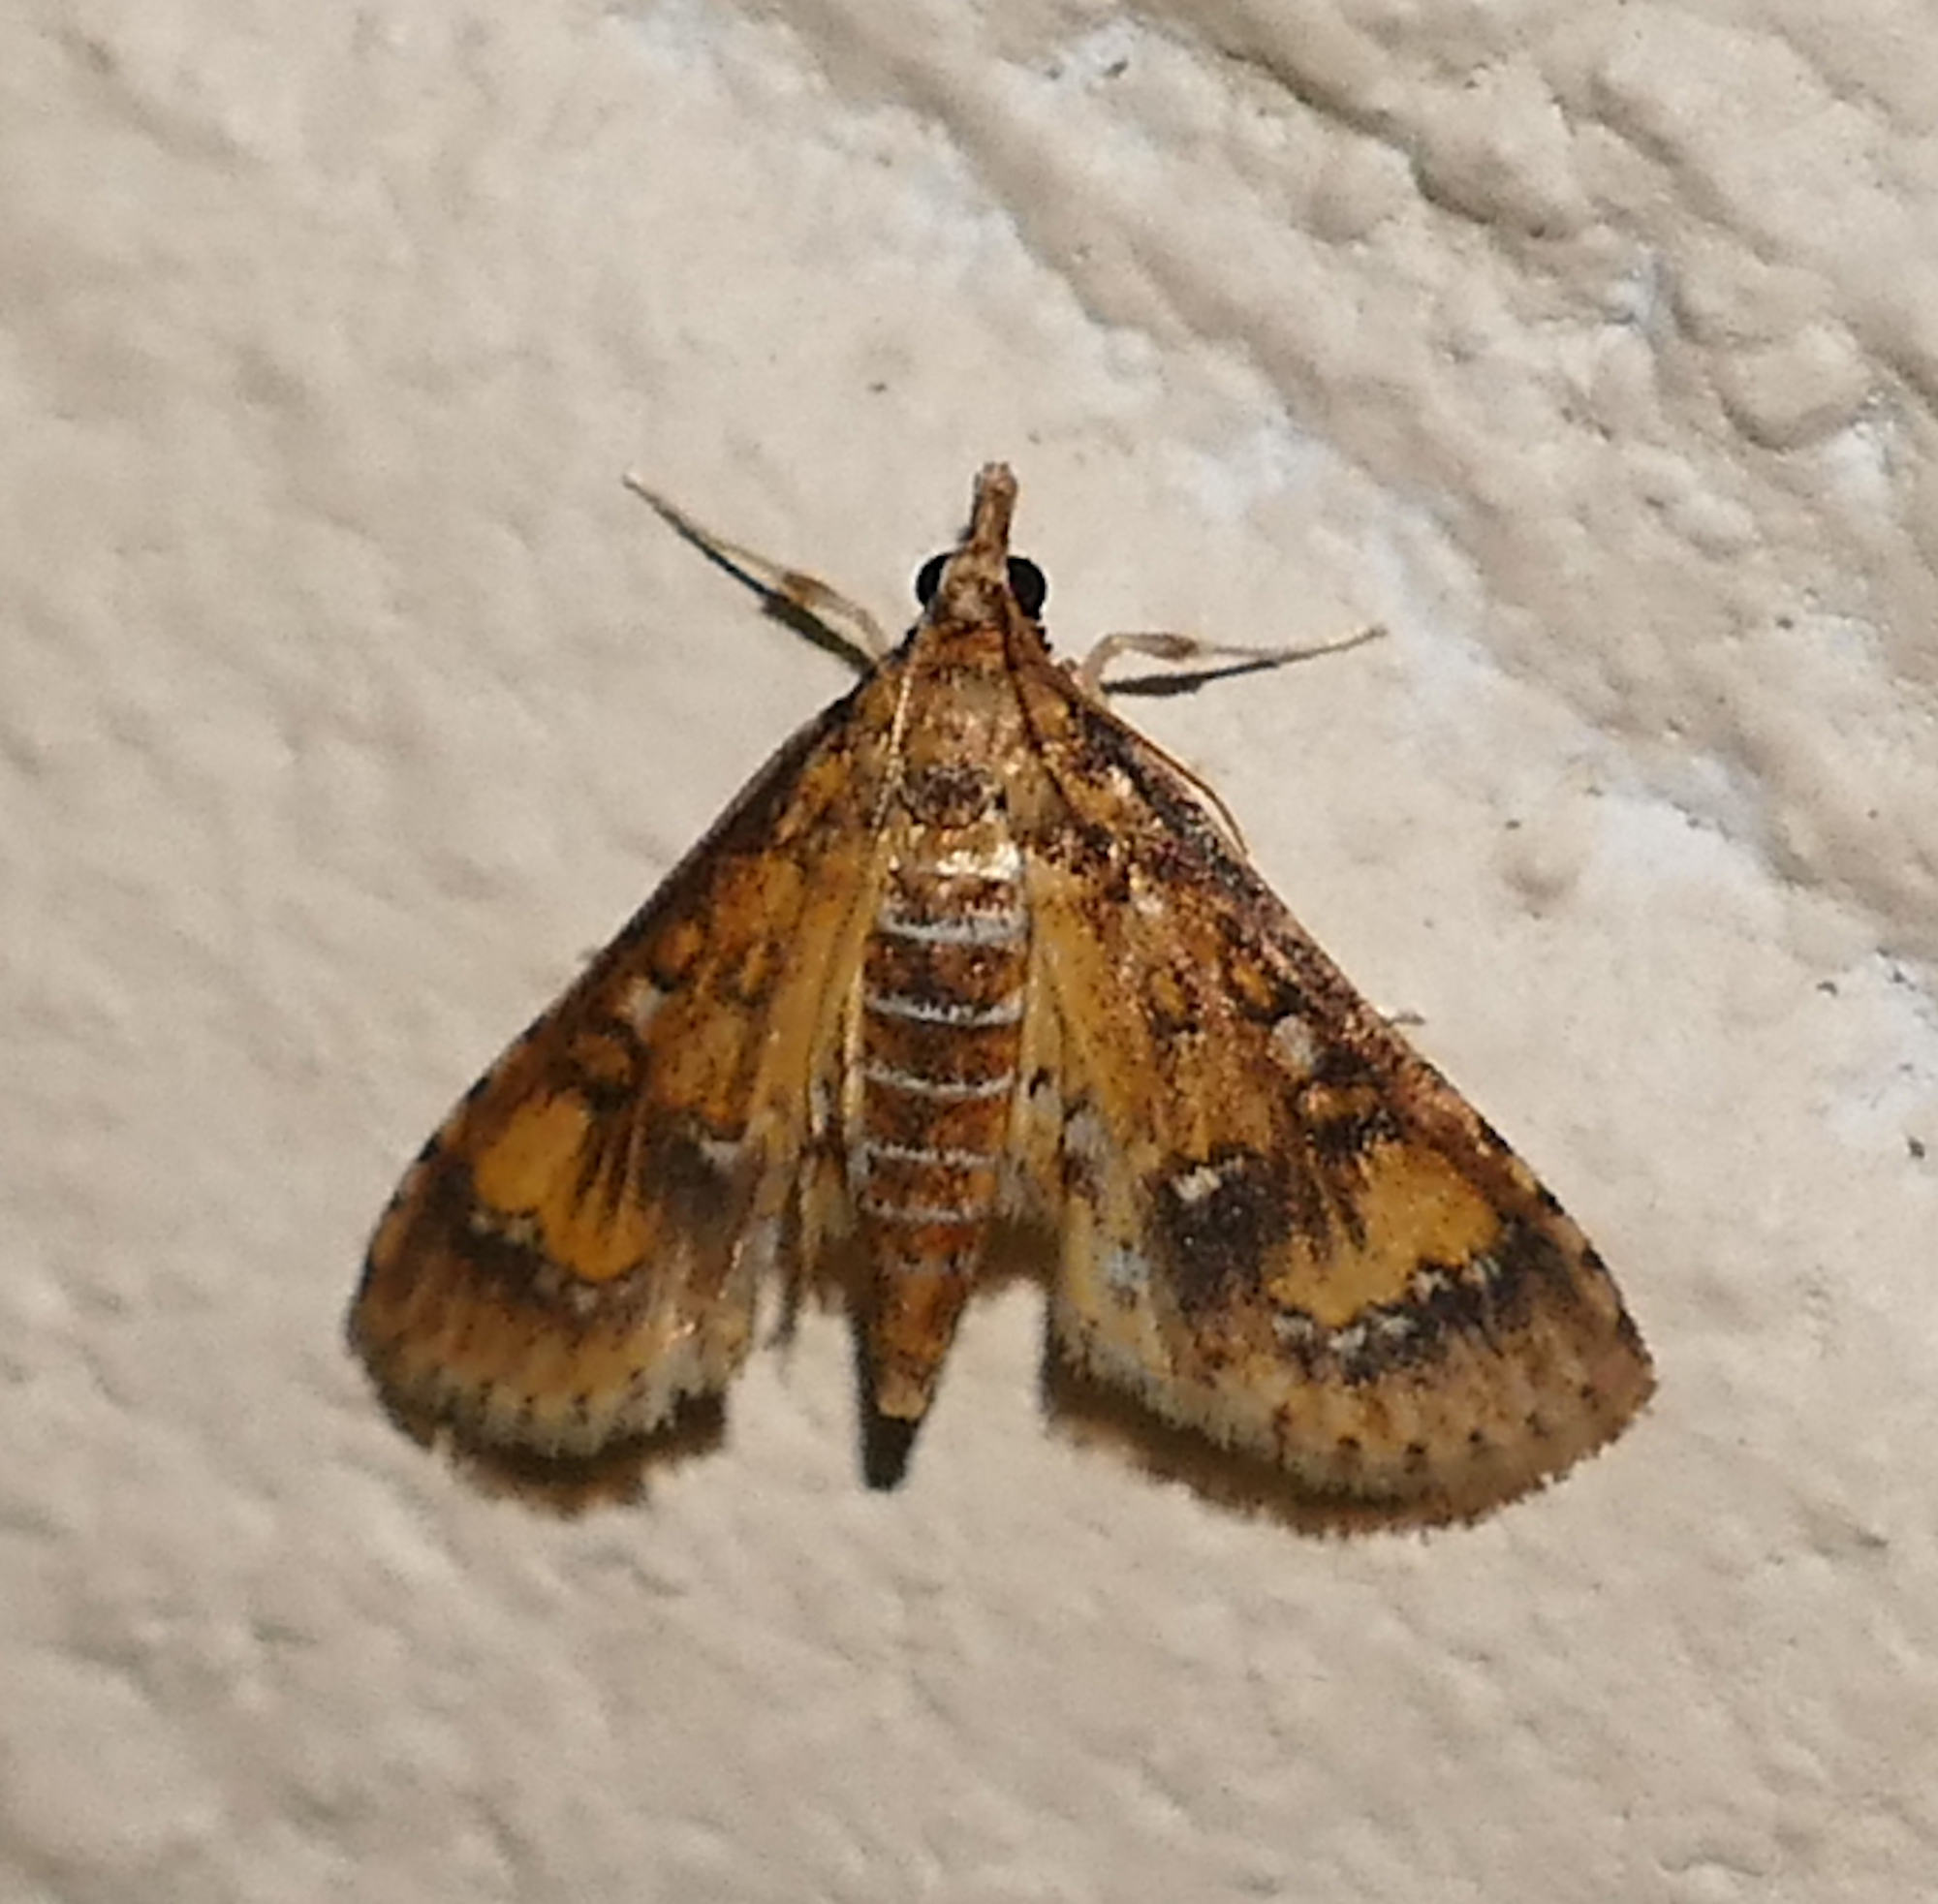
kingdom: Animalia
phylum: Arthropoda
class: Insecta
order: Lepidoptera
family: Crambidae
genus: Niphograpta
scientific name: Niphograpta albiguttalis
